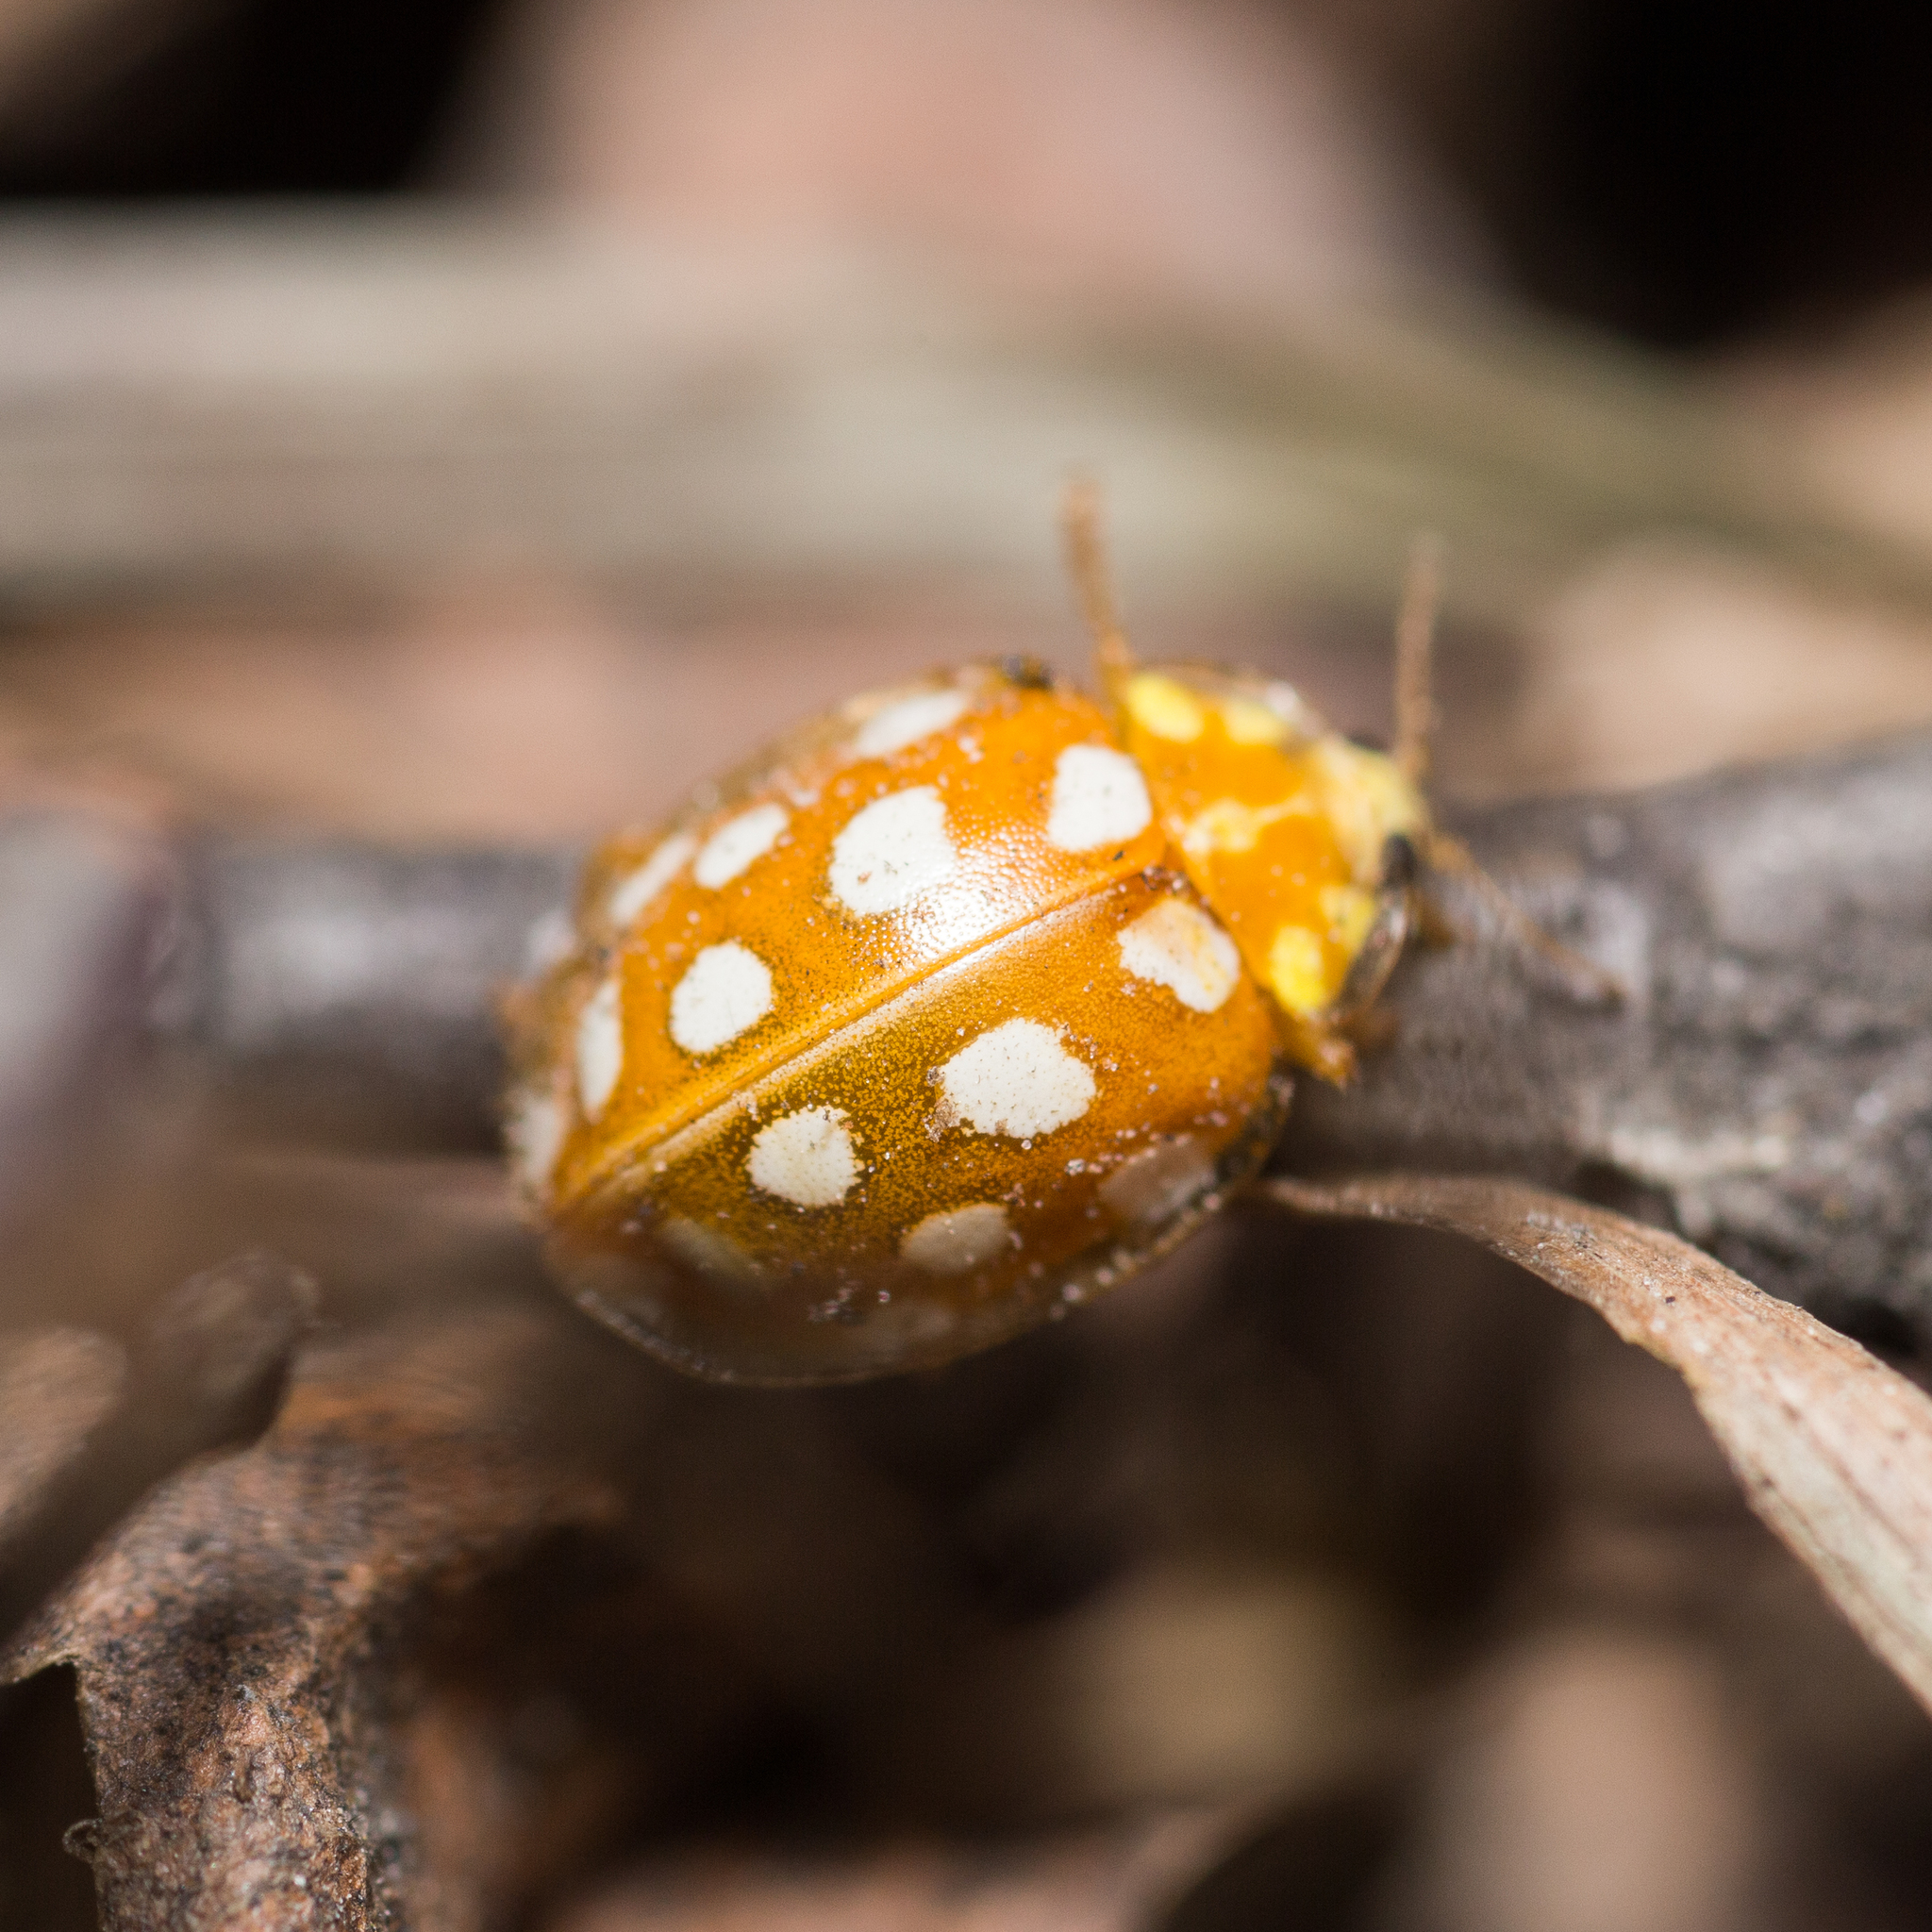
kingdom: Animalia
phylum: Arthropoda
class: Insecta
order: Coleoptera
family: Coccinellidae
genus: Halyzia
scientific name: Halyzia sedecimguttata
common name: Orange ladybird
